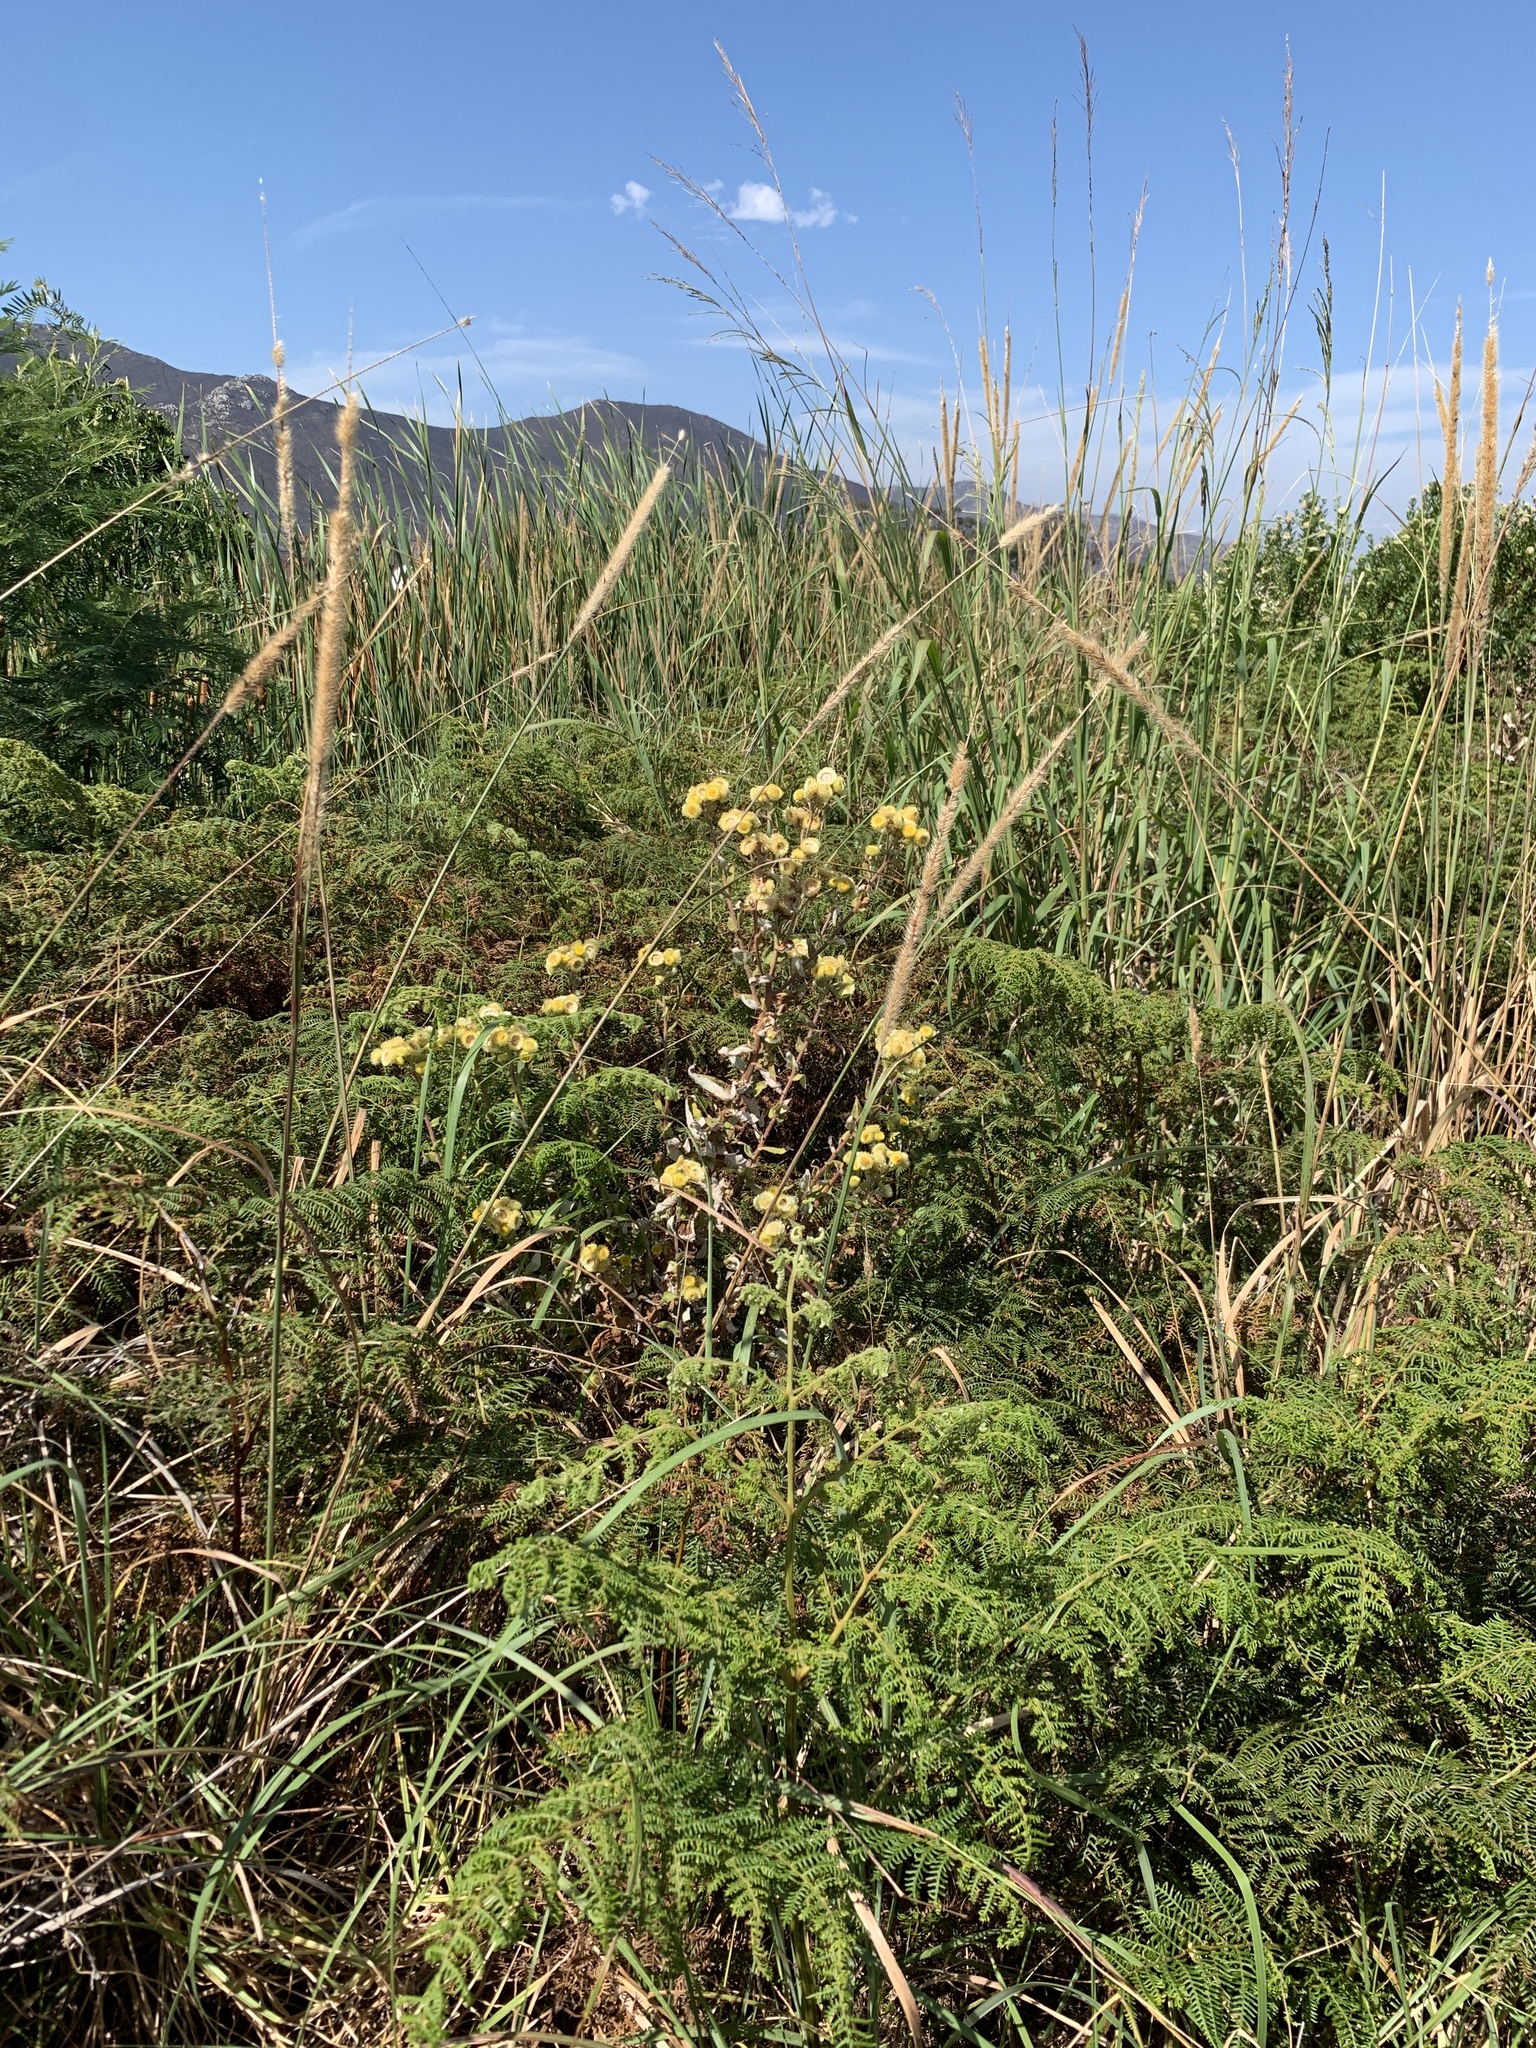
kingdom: Plantae
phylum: Tracheophyta
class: Magnoliopsida
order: Asterales
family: Asteraceae
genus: Helichrysum
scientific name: Helichrysum foetidum
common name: Stinking everlasting
